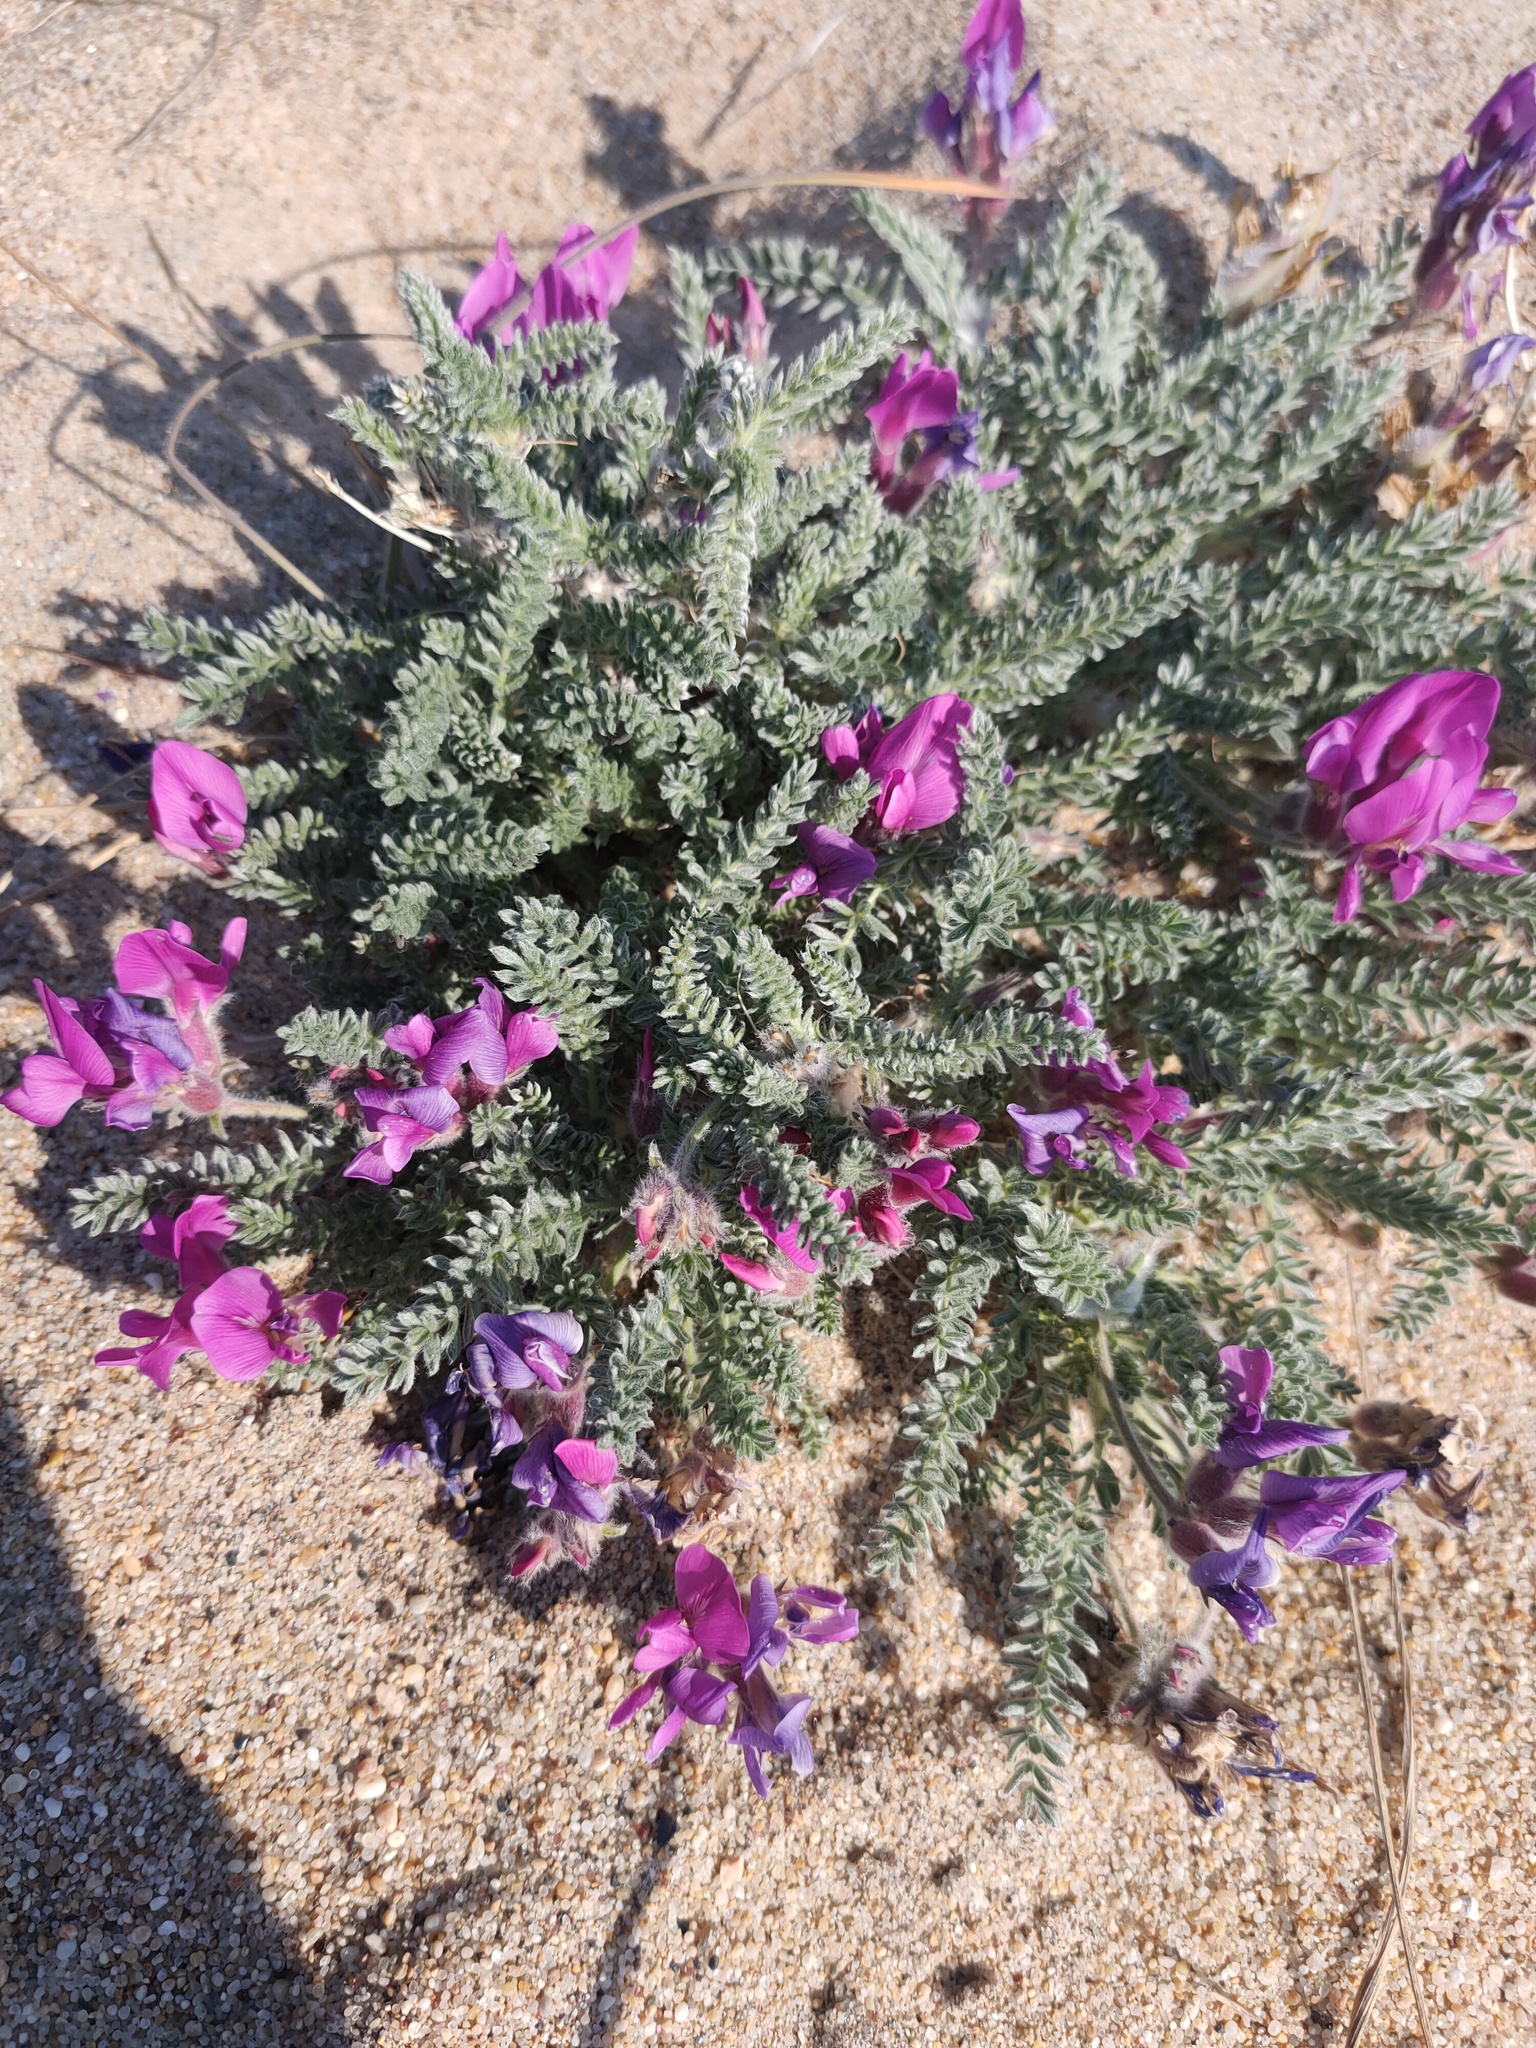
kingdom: Plantae
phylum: Tracheophyta
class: Magnoliopsida
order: Fabales
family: Fabaceae
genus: Oxytropis
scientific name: Oxytropis lanata
